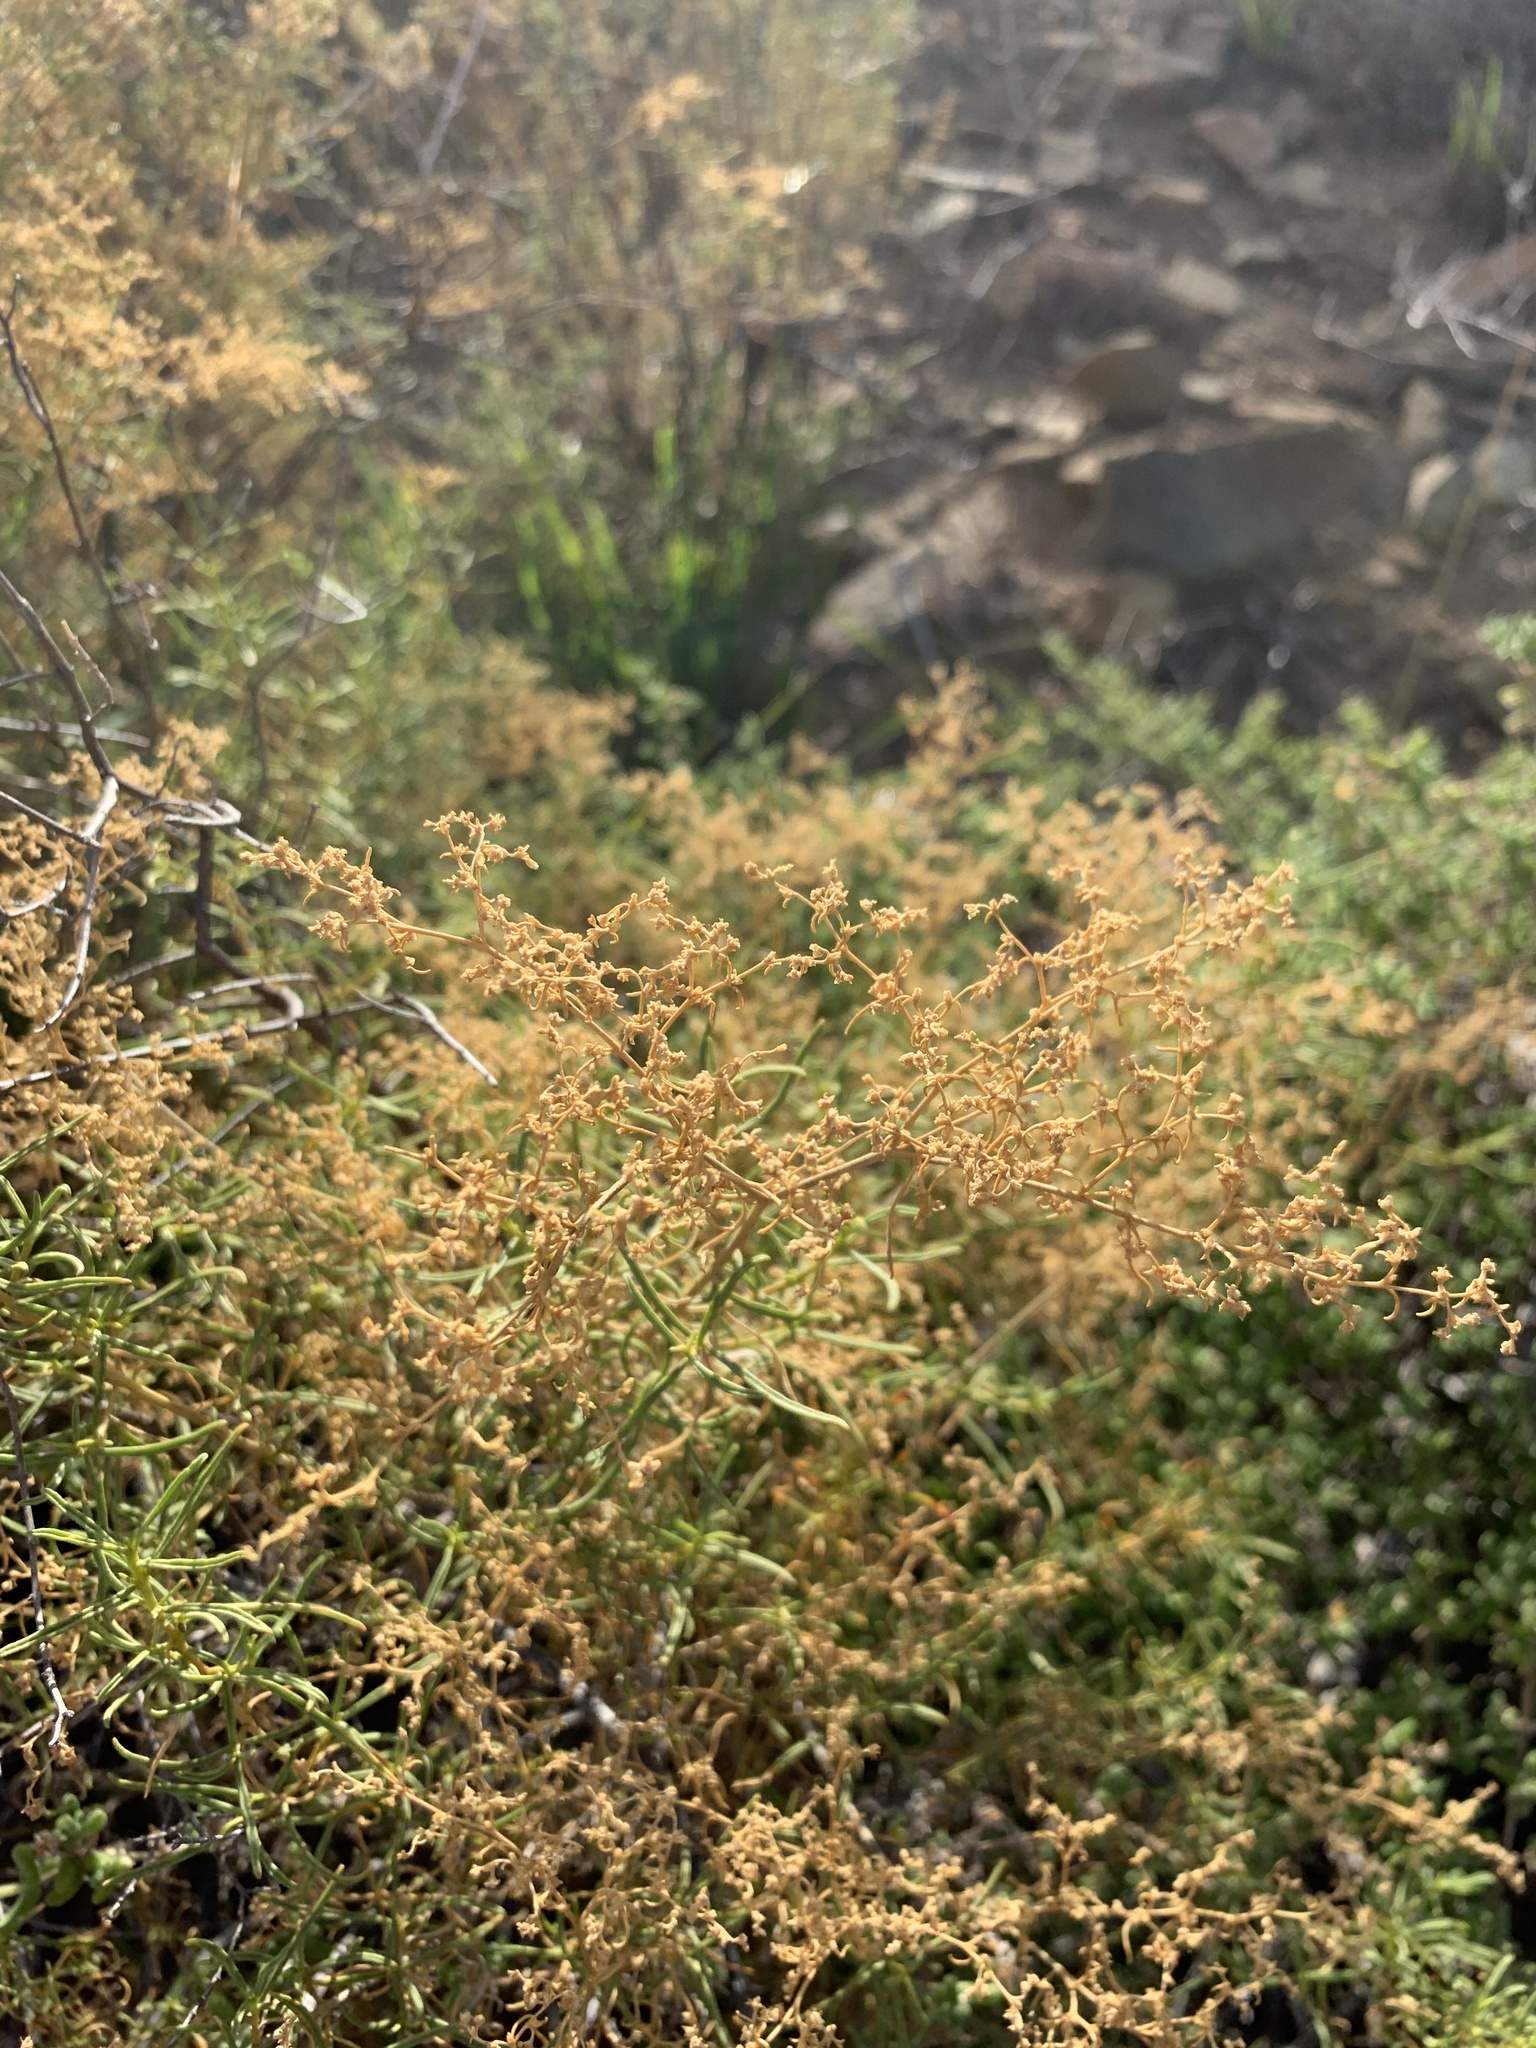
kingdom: Plantae
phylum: Tracheophyta
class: Magnoliopsida
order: Caryophyllales
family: Aizoaceae
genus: Aizoon
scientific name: Aizoon africanum
